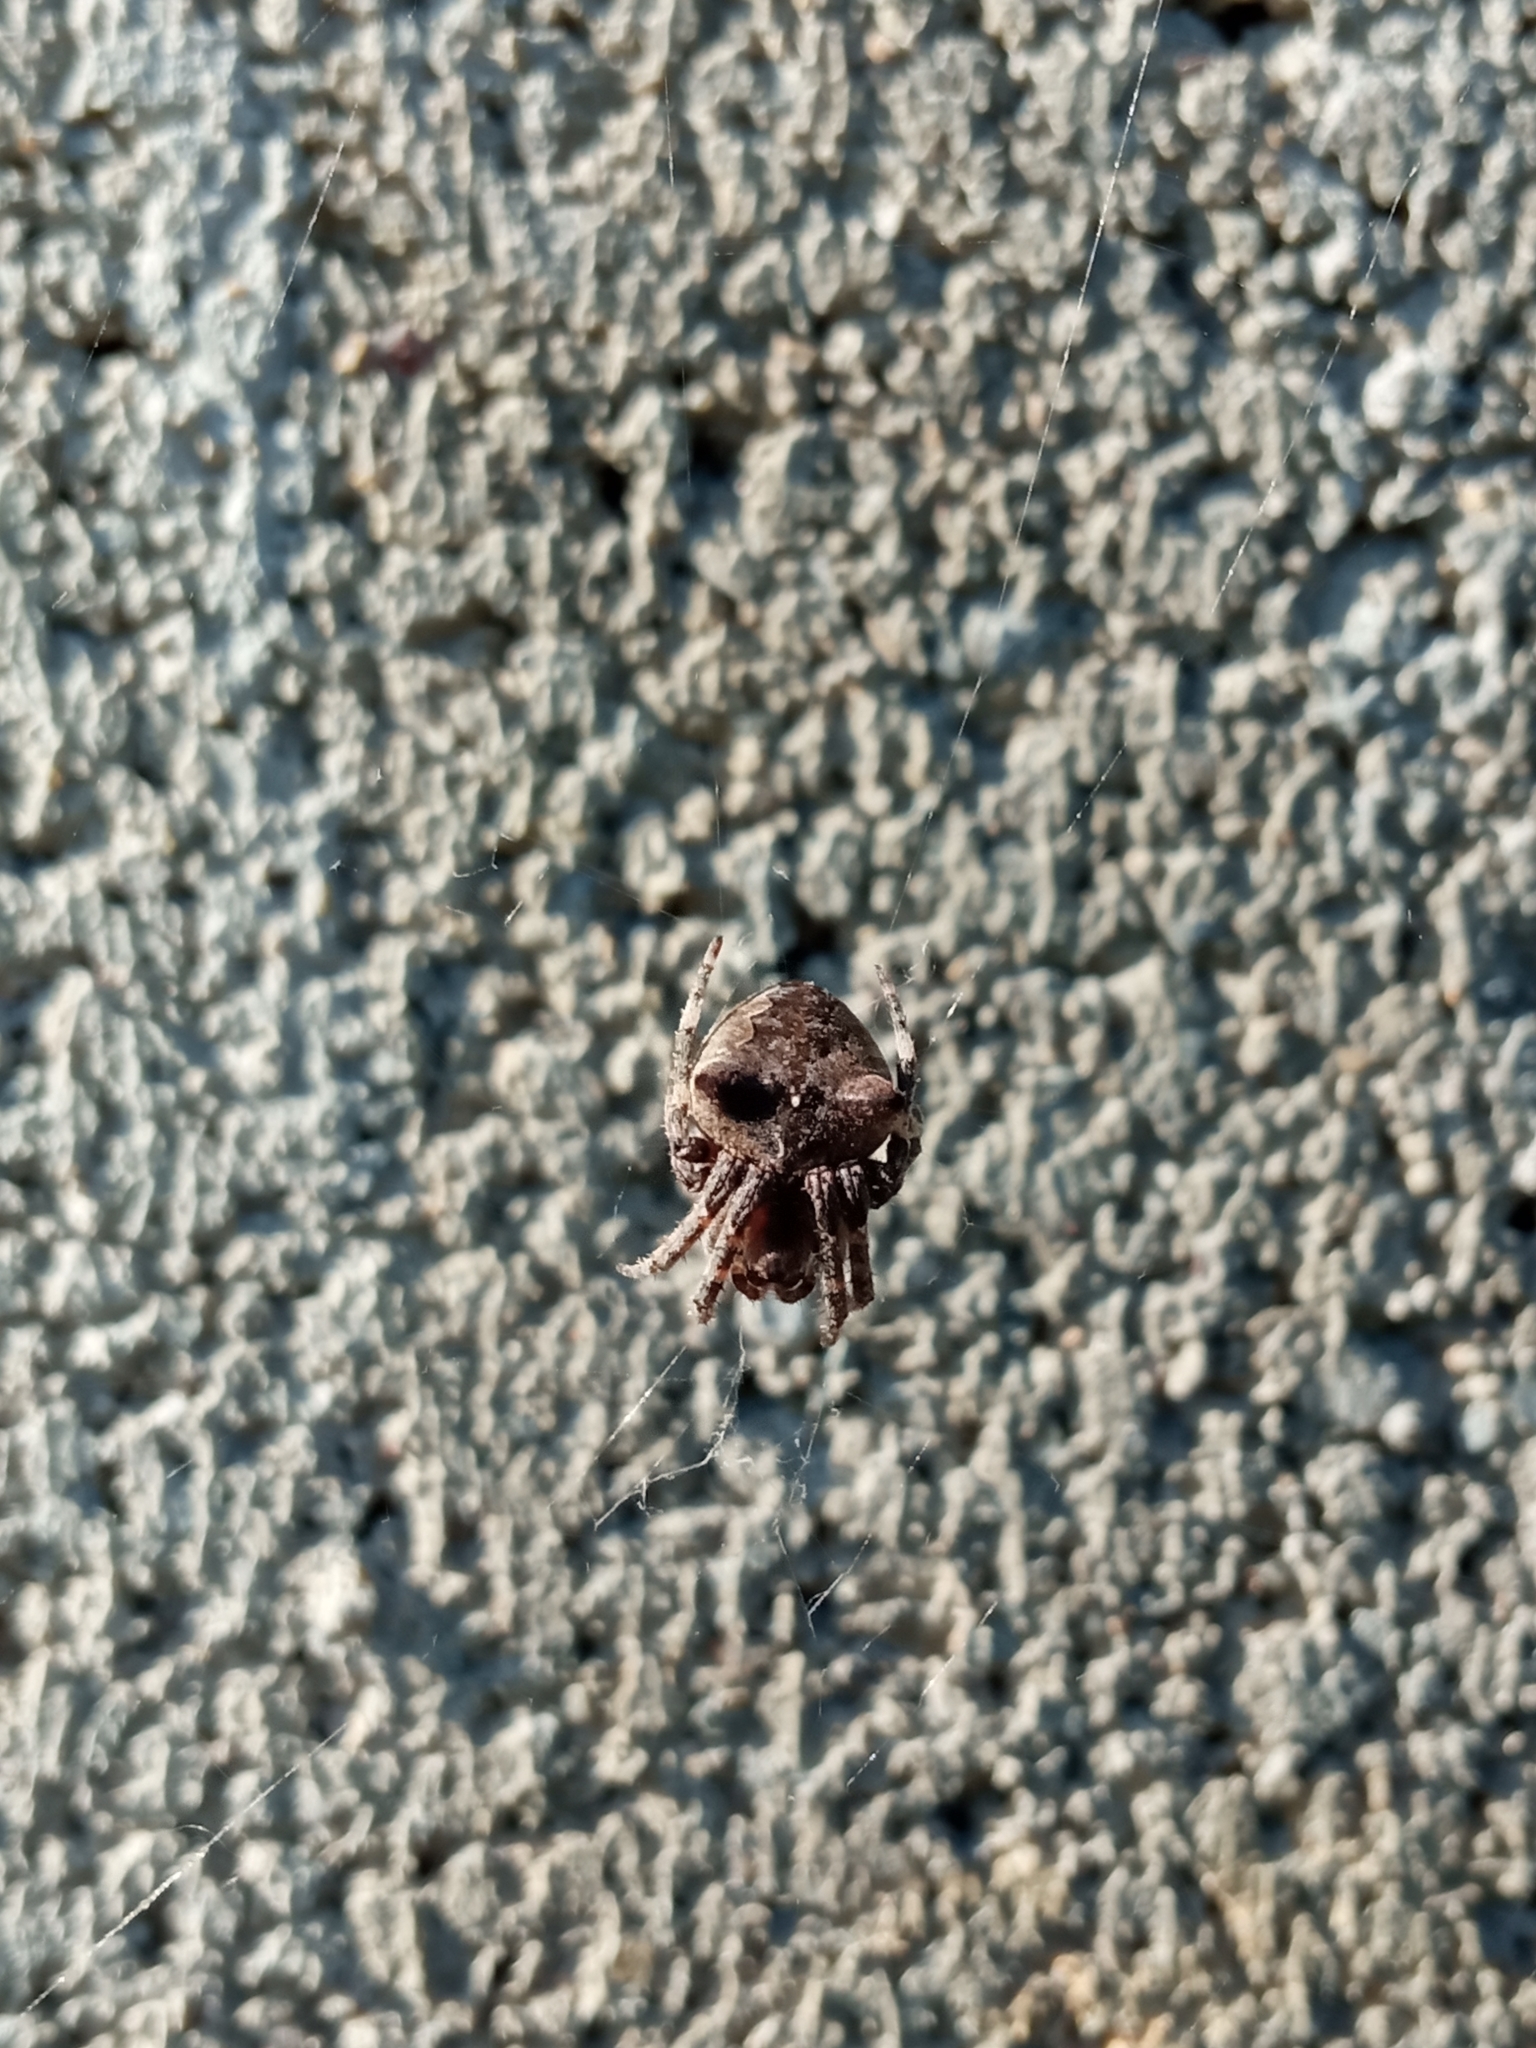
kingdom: Animalia
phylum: Arthropoda
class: Arachnida
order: Araneae
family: Araneidae
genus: Araneus
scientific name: Araneus angulatus
